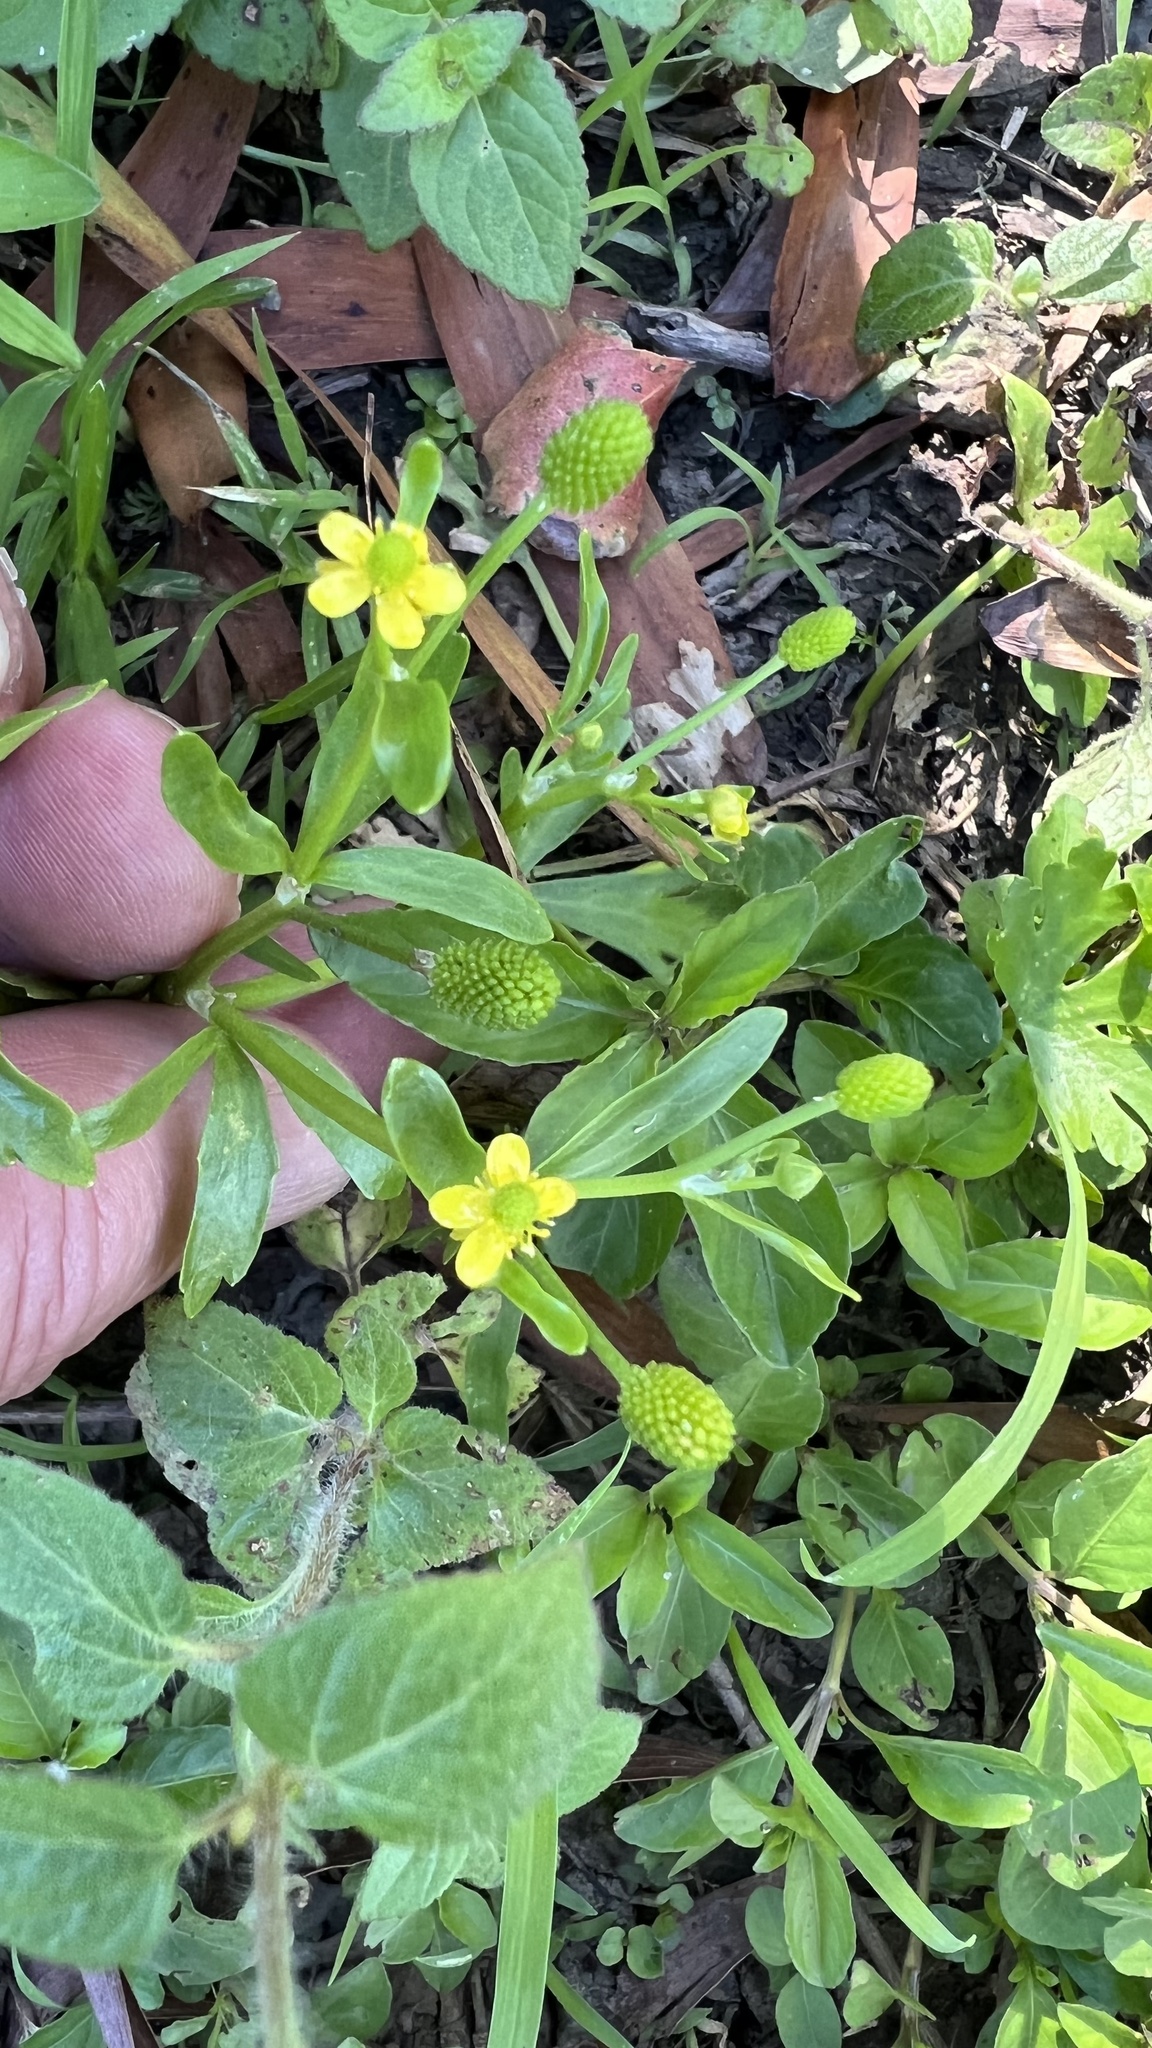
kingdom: Plantae
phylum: Tracheophyta
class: Magnoliopsida
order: Ranunculales
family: Ranunculaceae
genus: Ranunculus
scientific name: Ranunculus sceleratus
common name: Celery-leaved buttercup
